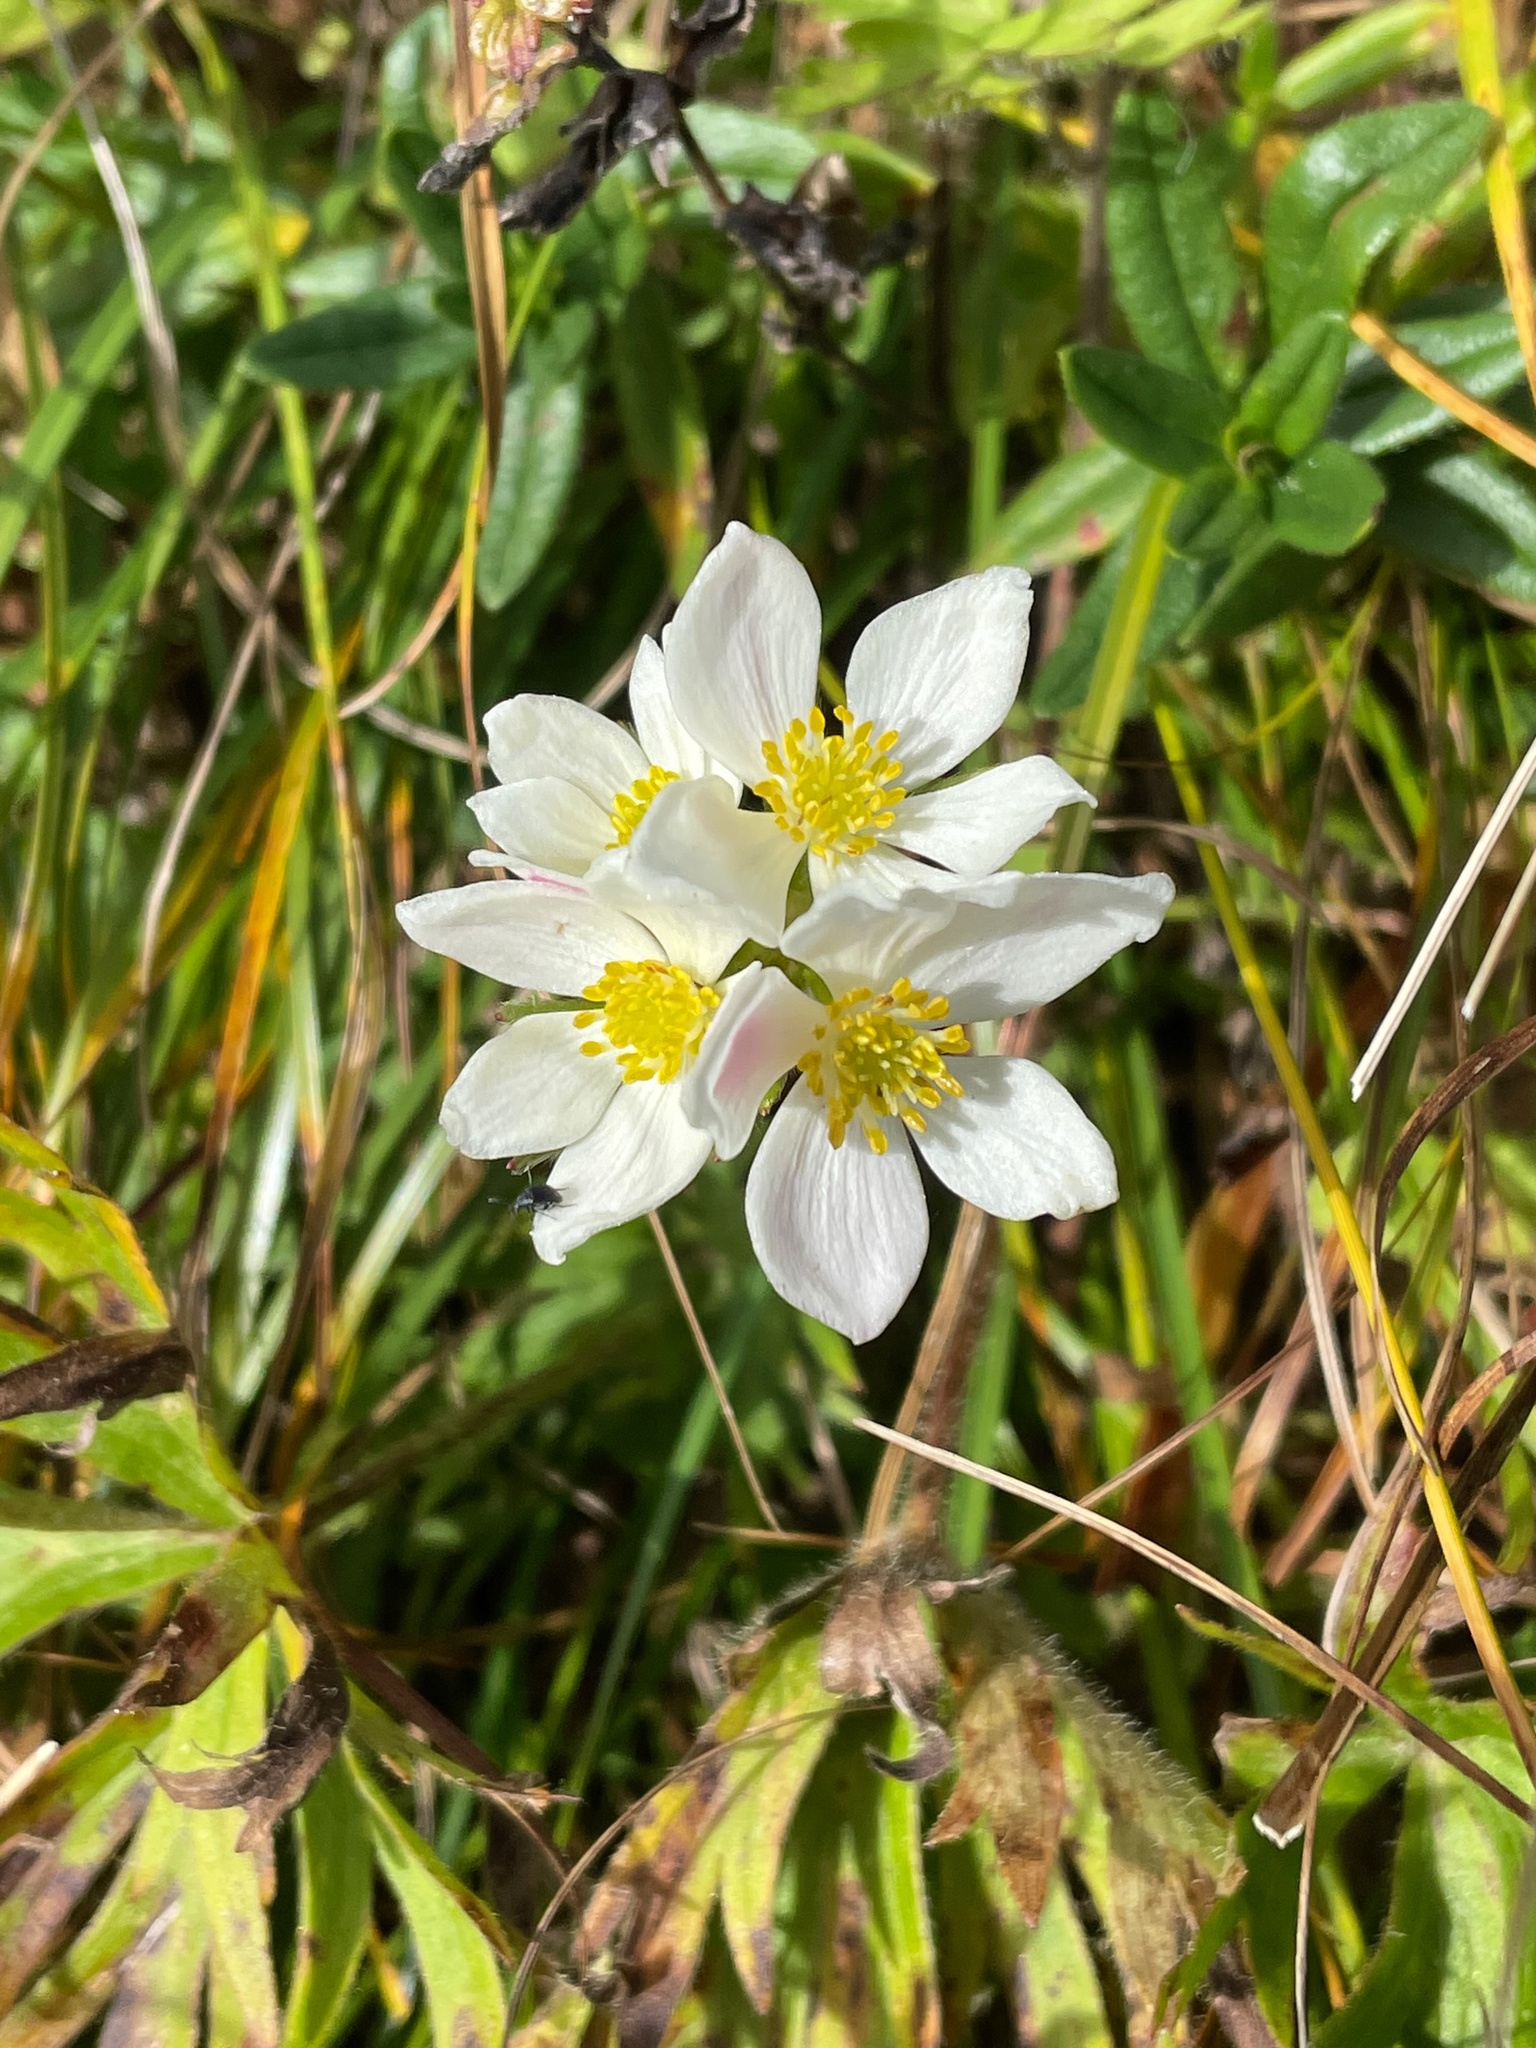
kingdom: Plantae
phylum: Tracheophyta
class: Magnoliopsida
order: Ranunculales
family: Ranunculaceae
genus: Anemonastrum
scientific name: Anemonastrum narcissiflorum
